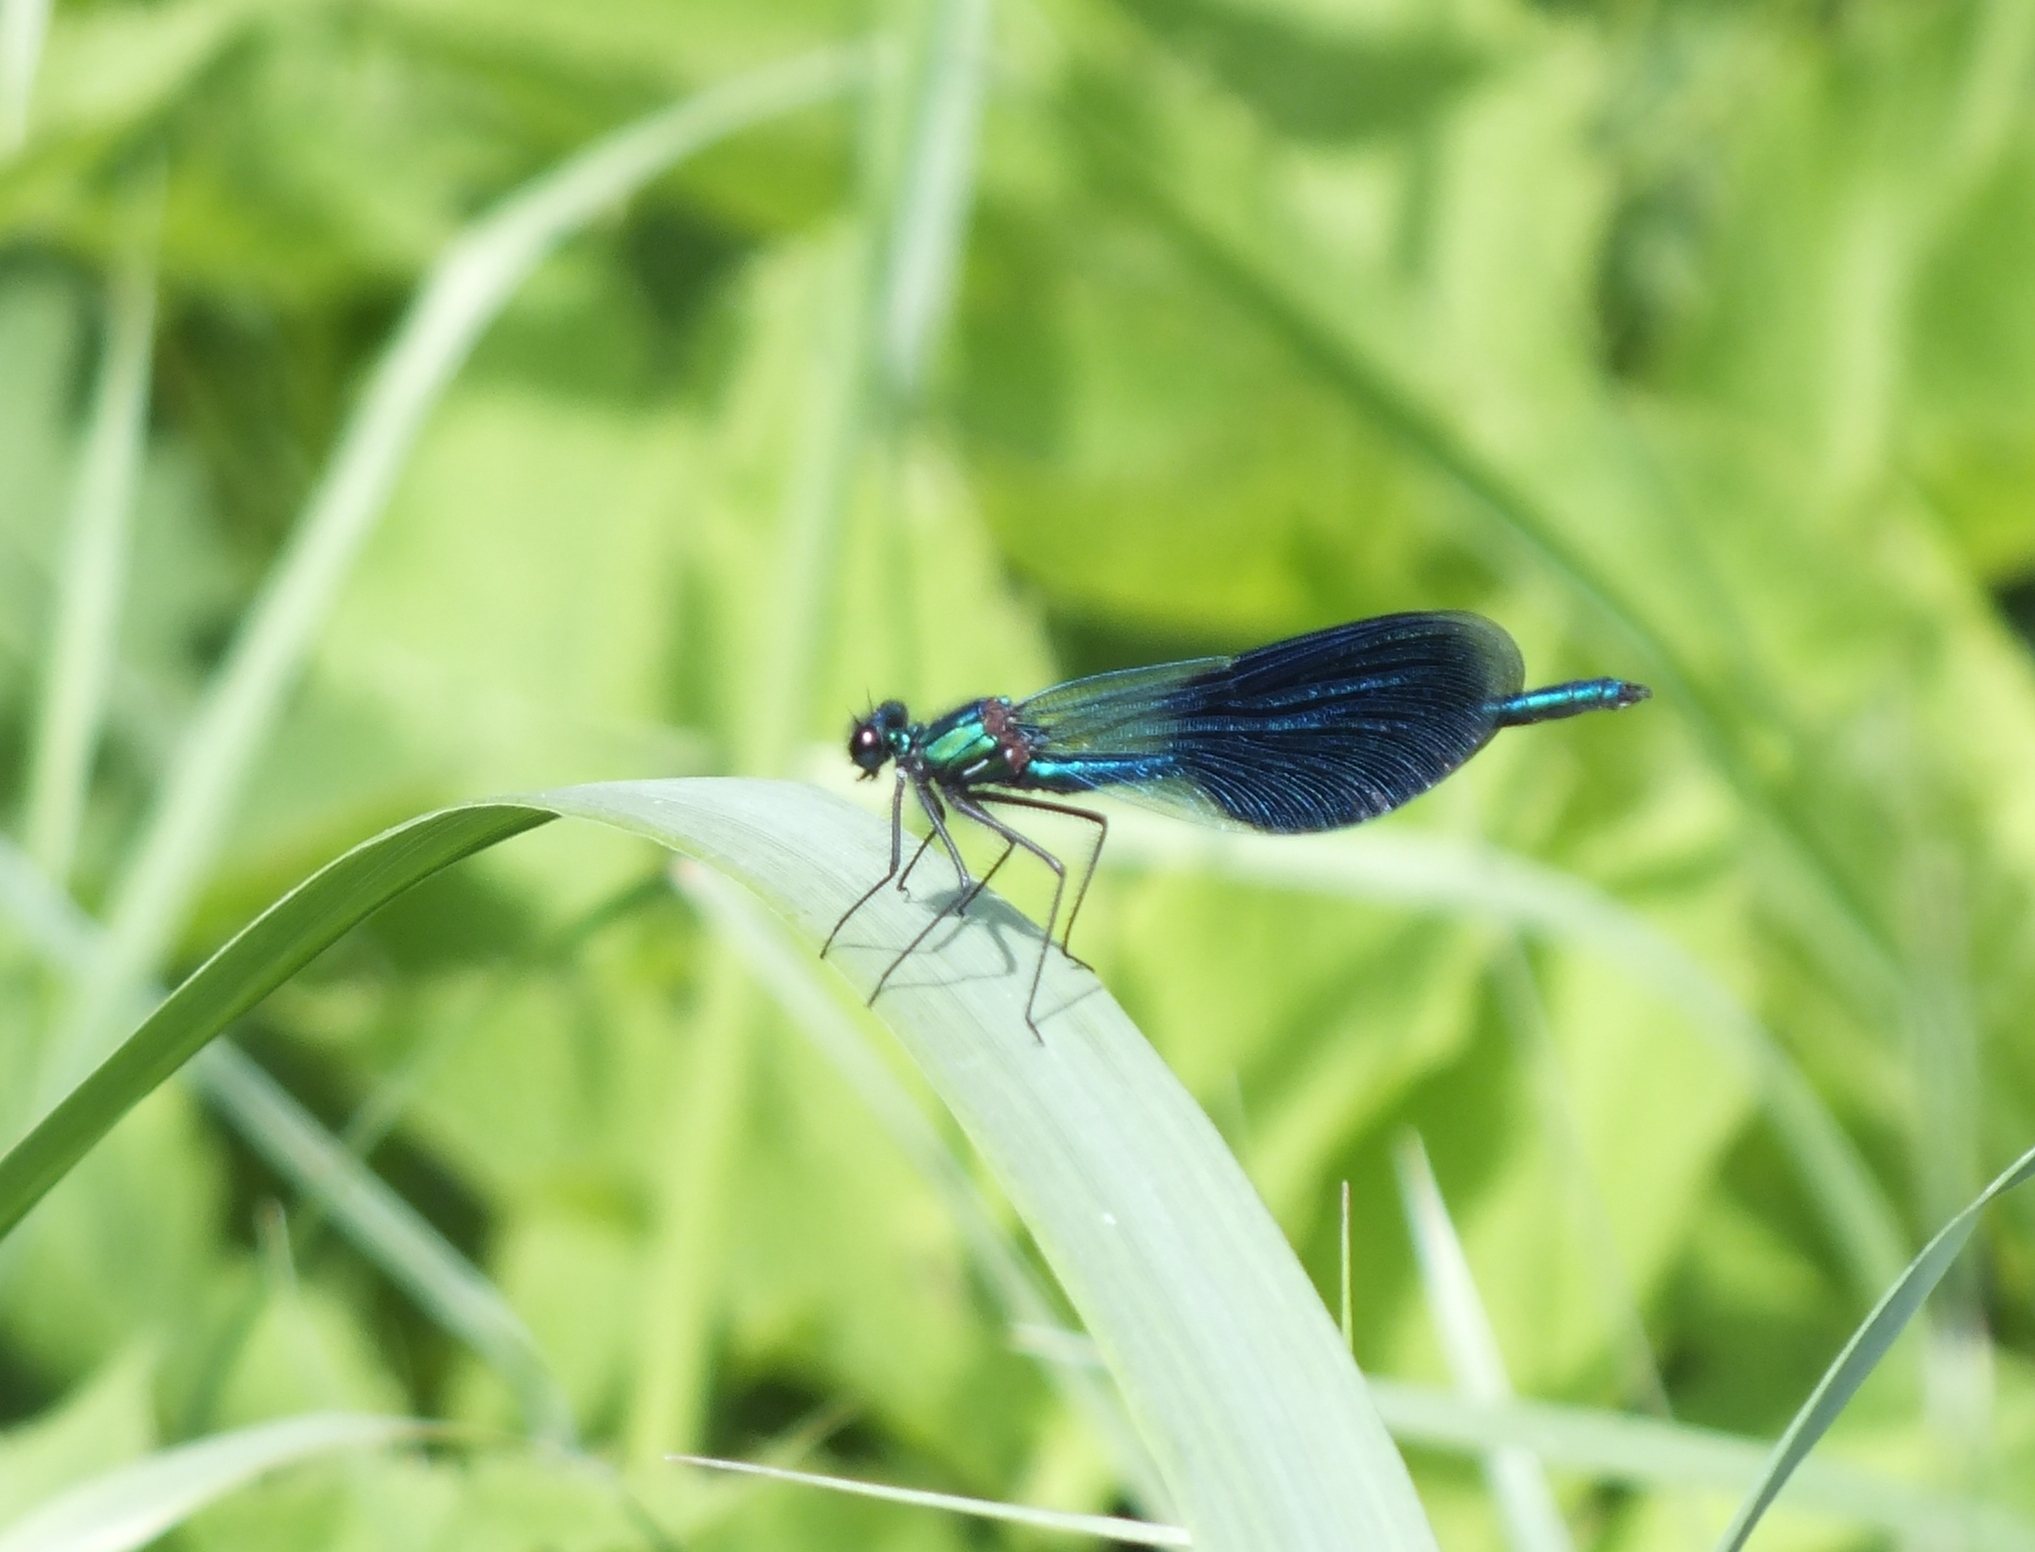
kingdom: Animalia
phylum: Arthropoda
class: Insecta
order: Odonata
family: Calopterygidae
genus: Calopteryx
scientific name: Calopteryx splendens
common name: Banded demoiselle
